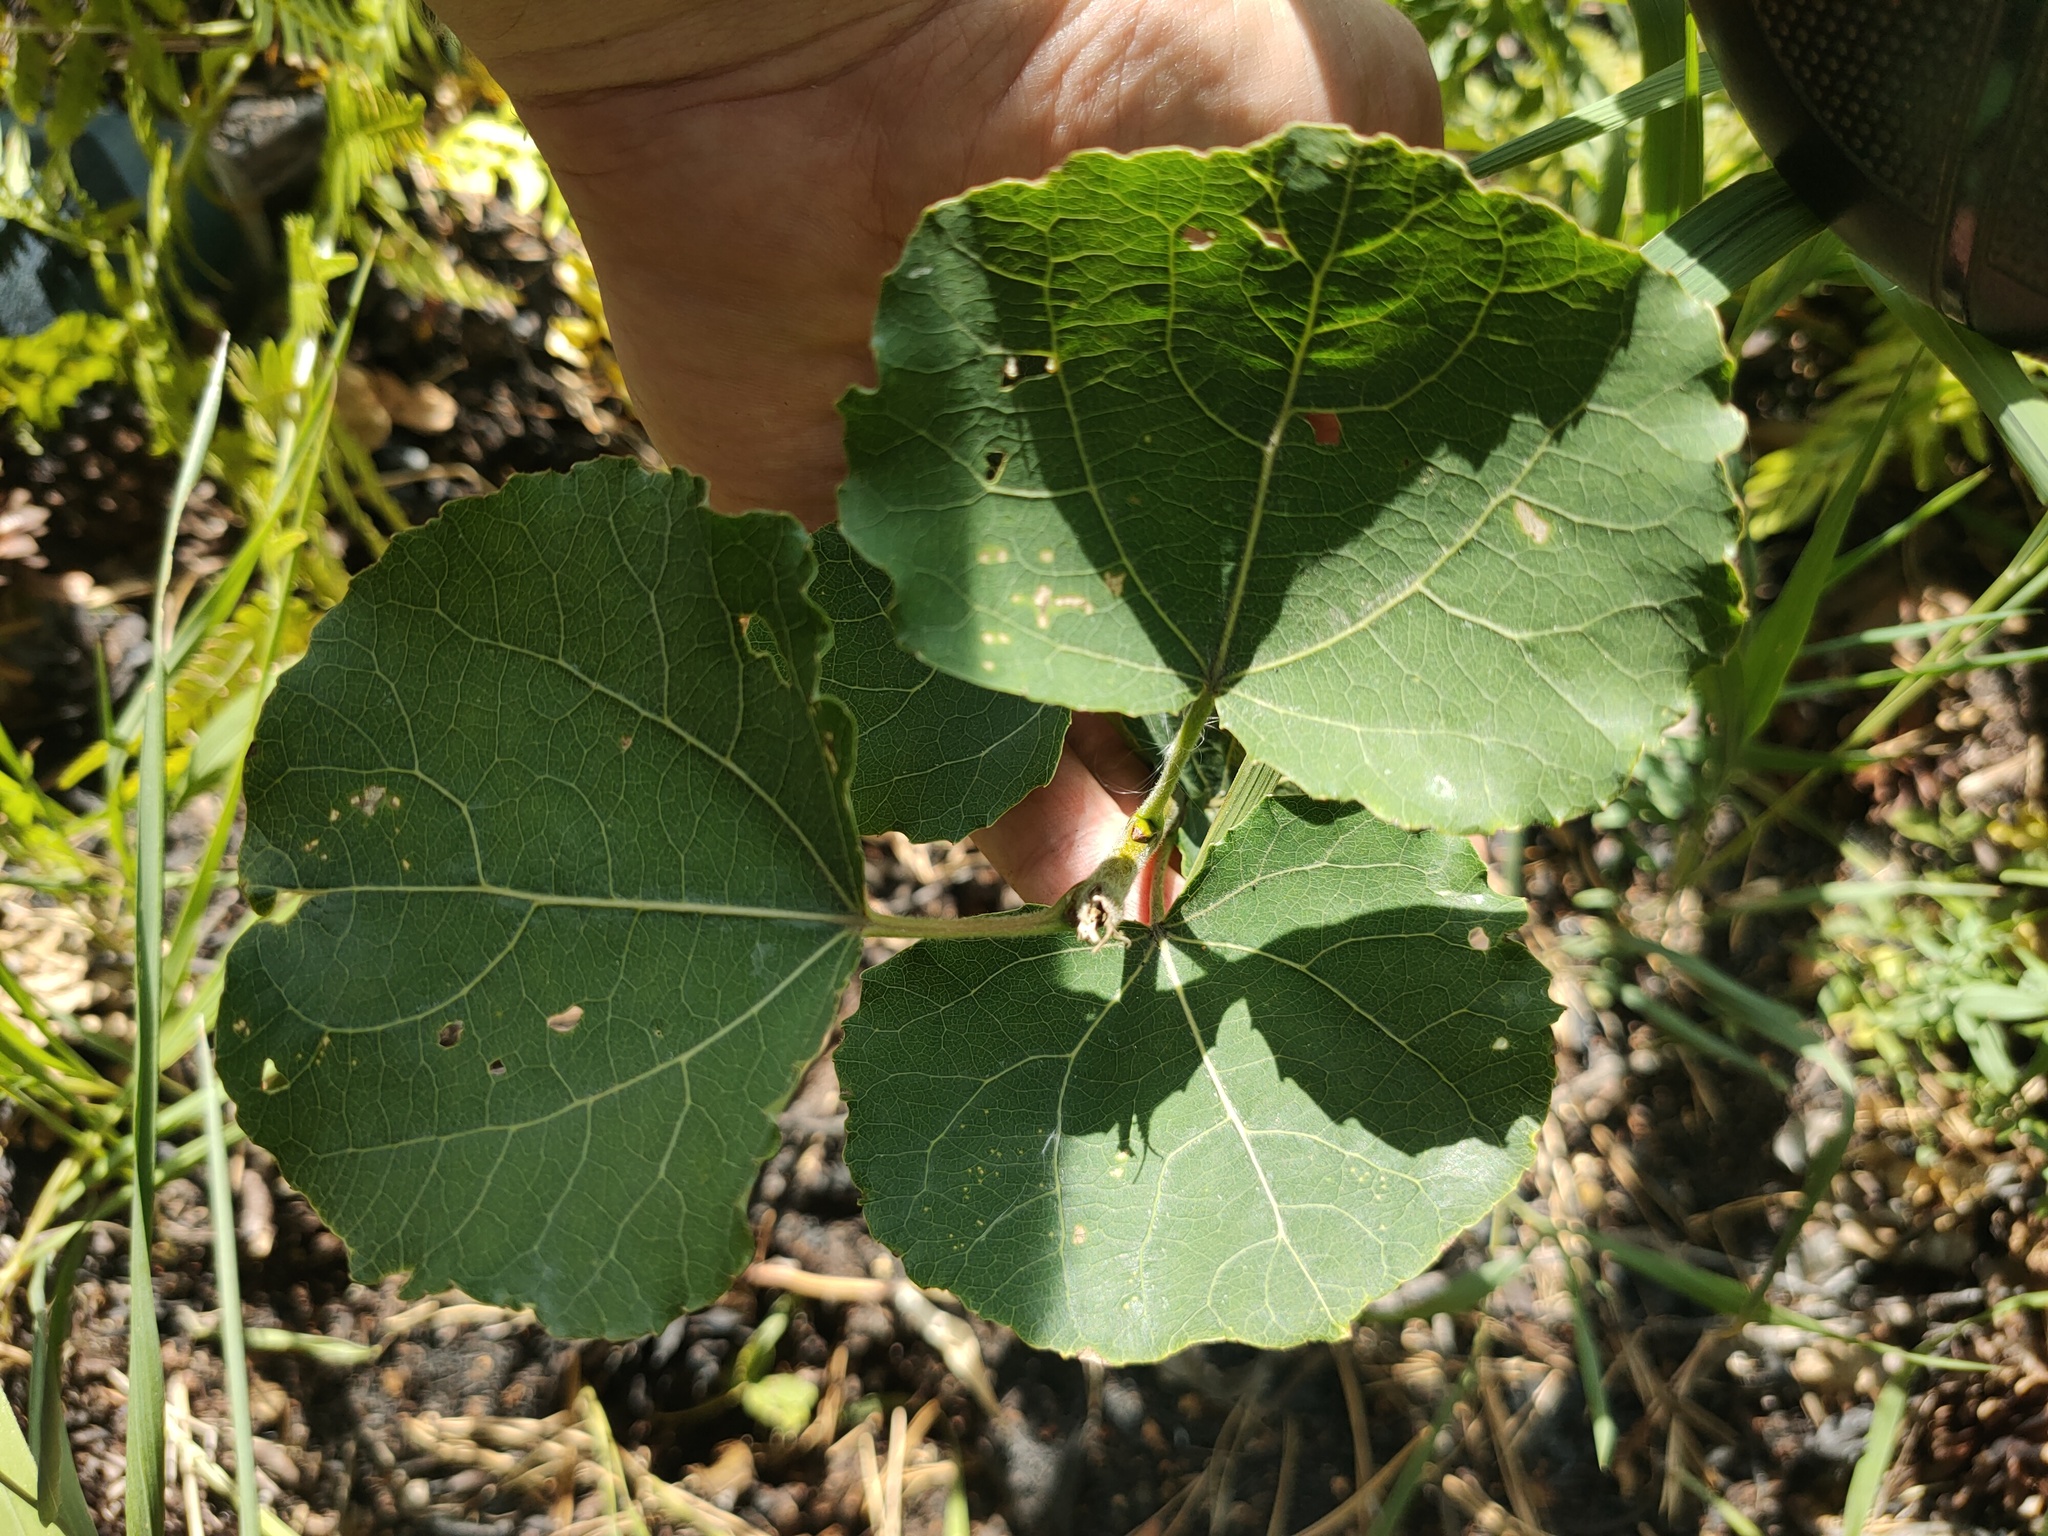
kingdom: Plantae
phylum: Tracheophyta
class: Magnoliopsida
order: Malpighiales
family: Salicaceae
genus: Populus
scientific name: Populus tremula
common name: European aspen
